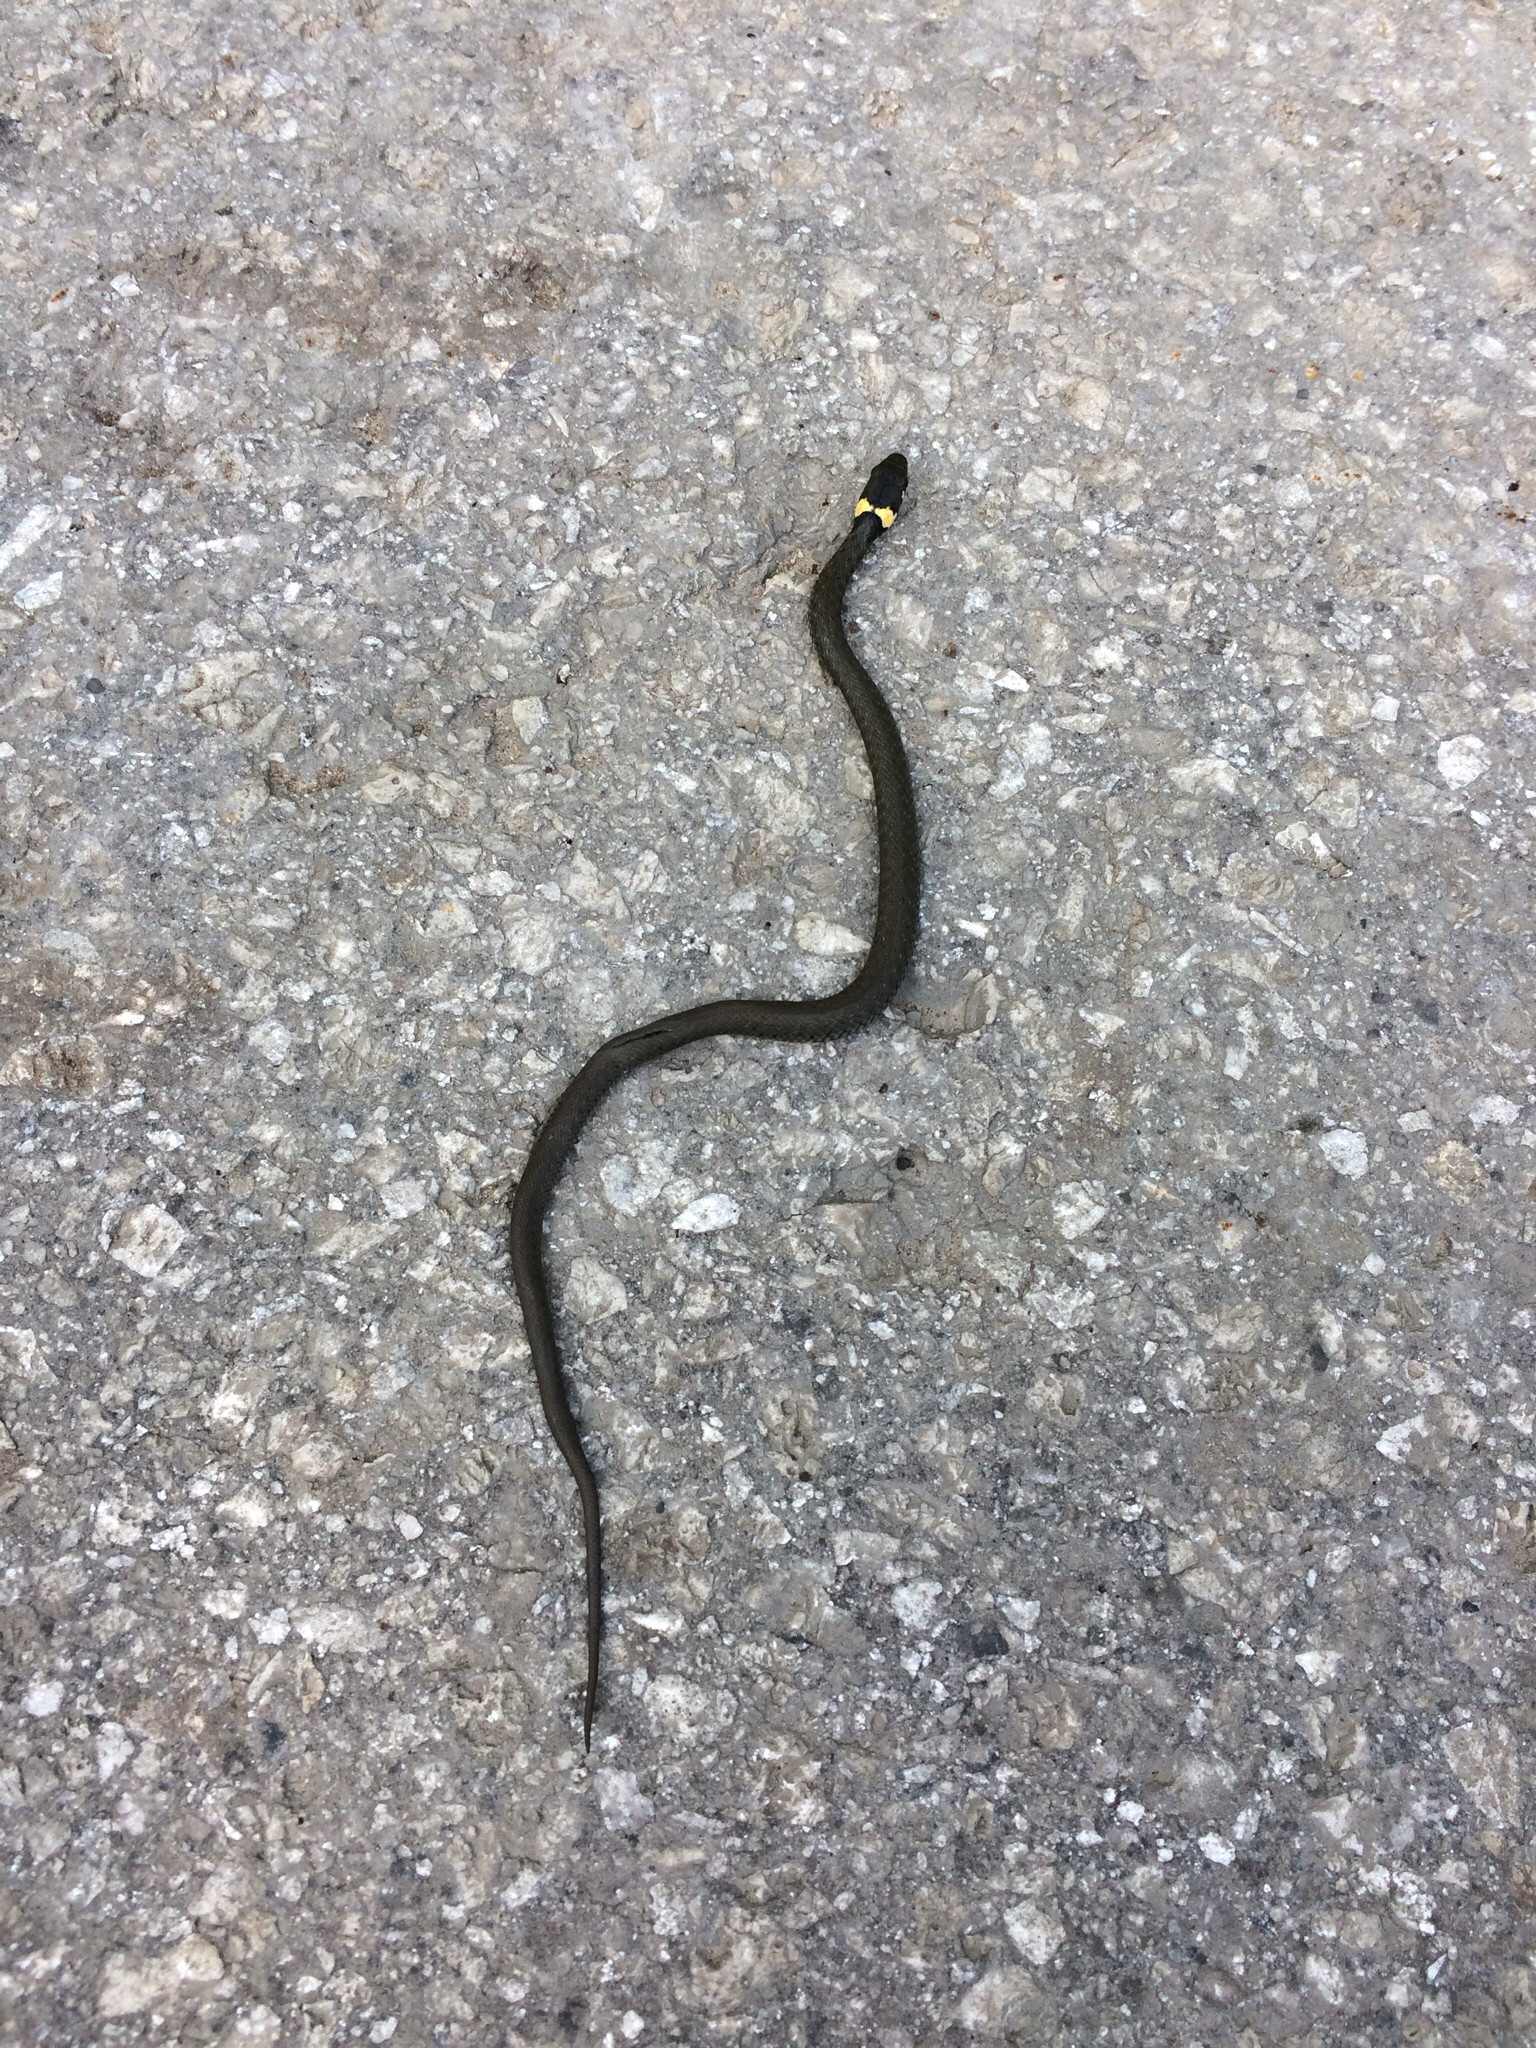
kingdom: Animalia
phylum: Chordata
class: Squamata
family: Colubridae
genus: Natrix
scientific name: Natrix natrix
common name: Grass snake
